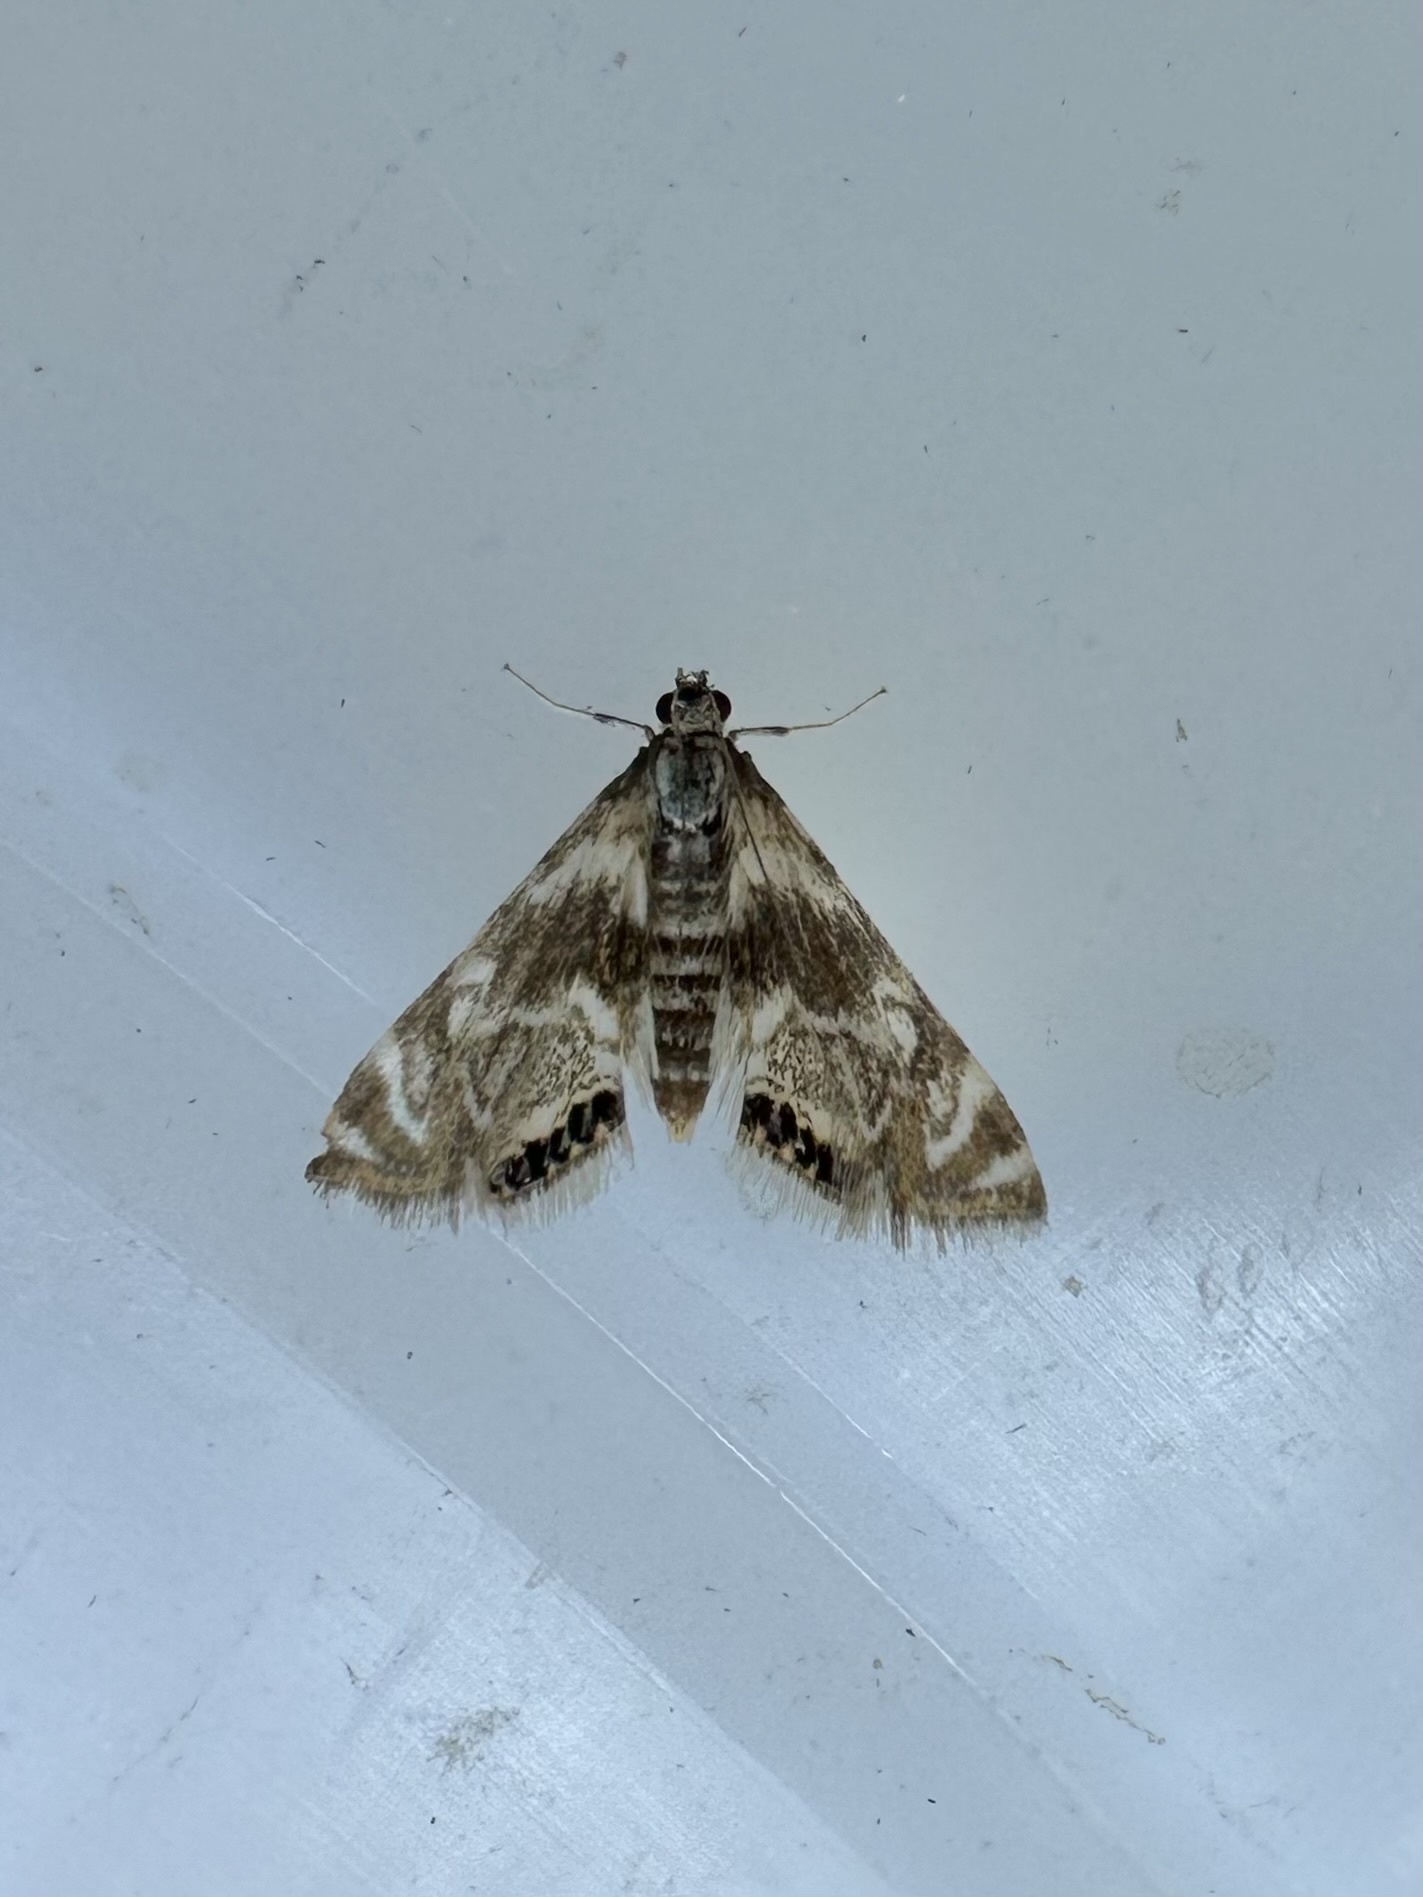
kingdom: Animalia
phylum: Arthropoda
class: Insecta
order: Lepidoptera
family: Crambidae
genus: Petrophila
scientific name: Petrophila canadensis
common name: Canadian petrophila
